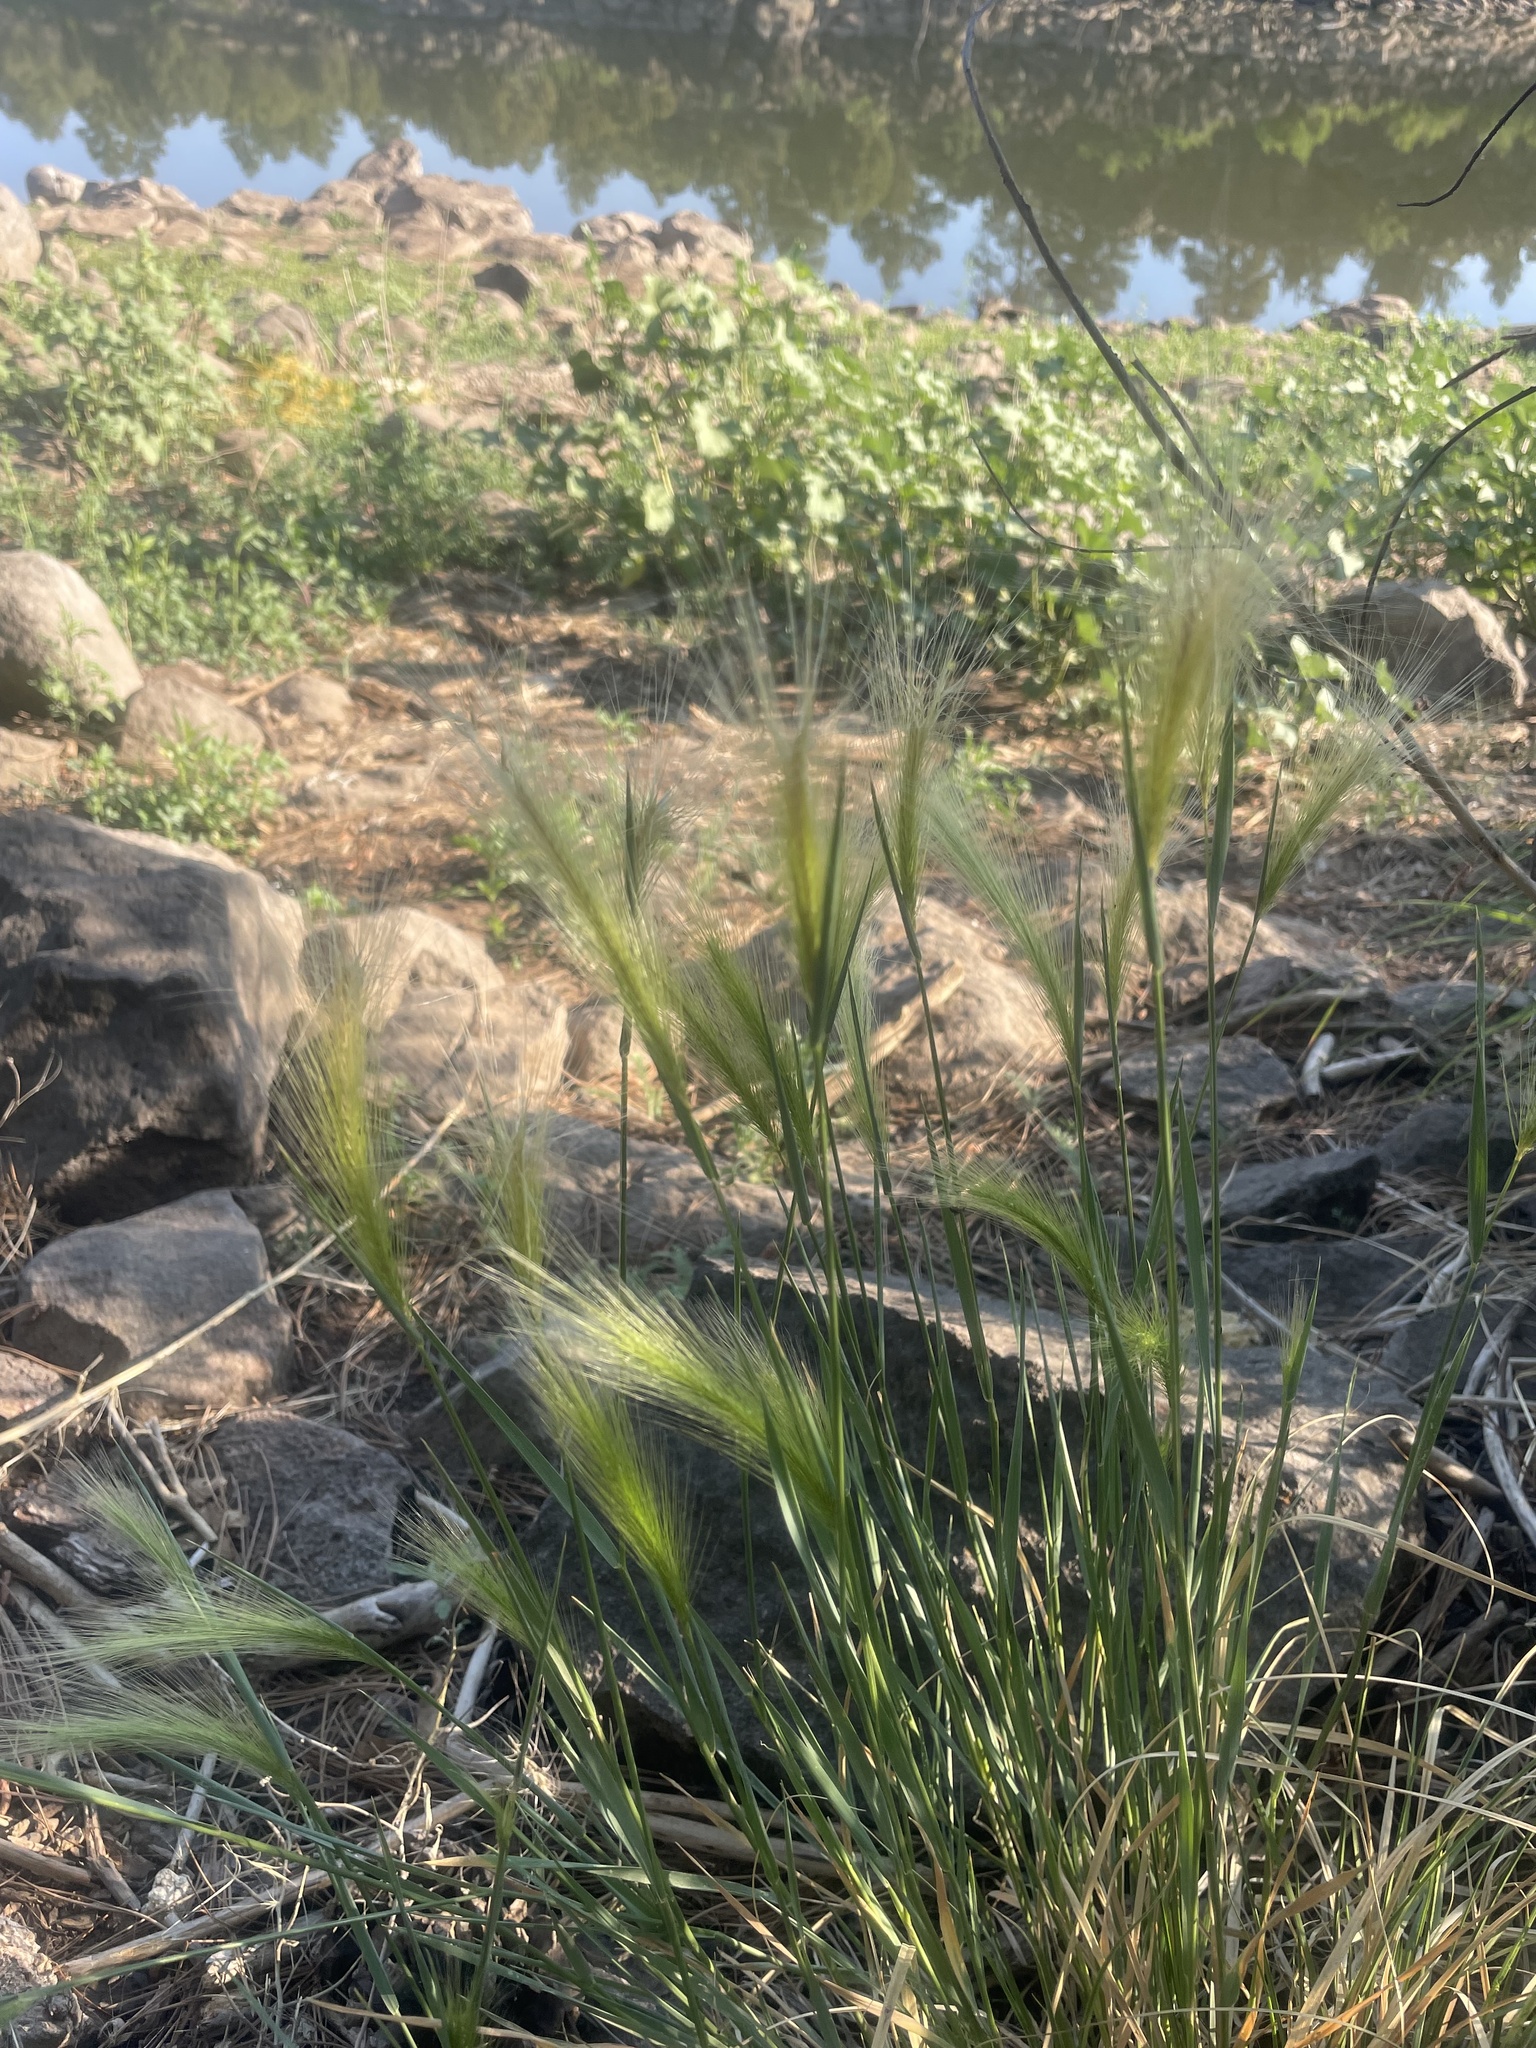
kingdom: Plantae
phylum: Tracheophyta
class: Liliopsida
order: Poales
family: Poaceae
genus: Hordeum
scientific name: Hordeum jubatum
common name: Foxtail barley
